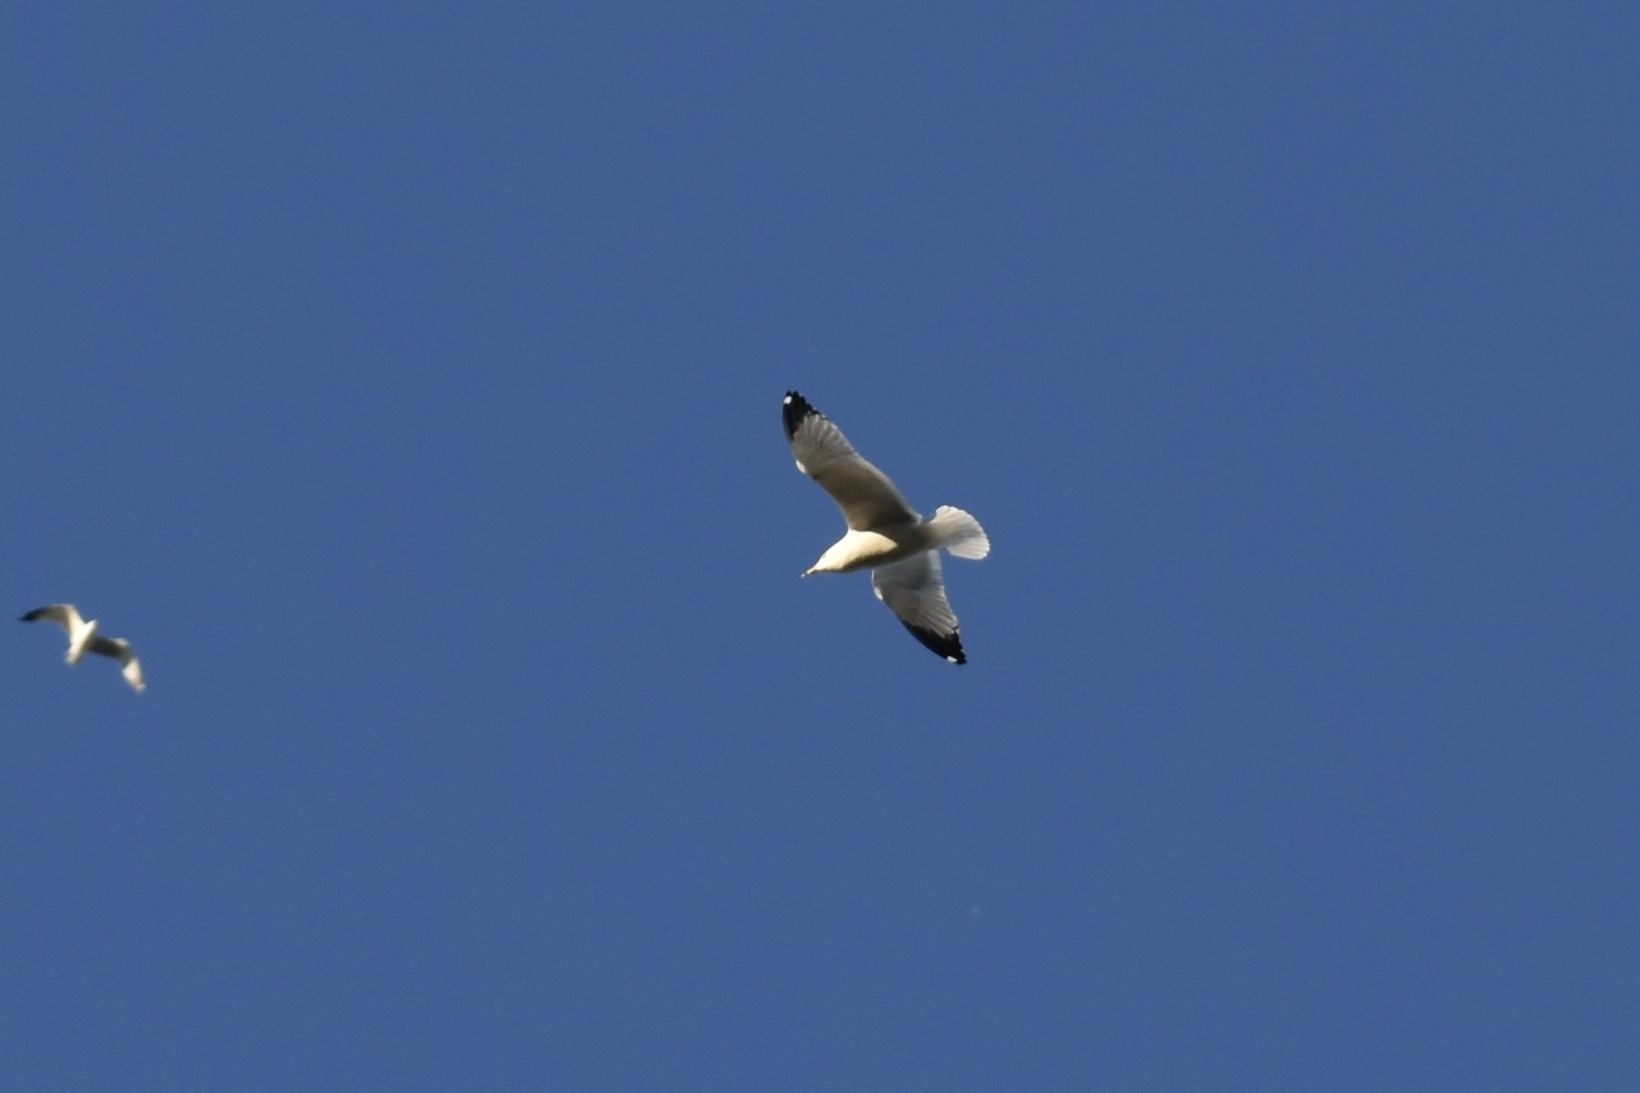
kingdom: Animalia
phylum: Chordata
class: Aves
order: Charadriiformes
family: Laridae
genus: Larus
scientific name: Larus delawarensis
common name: Ring-billed gull
